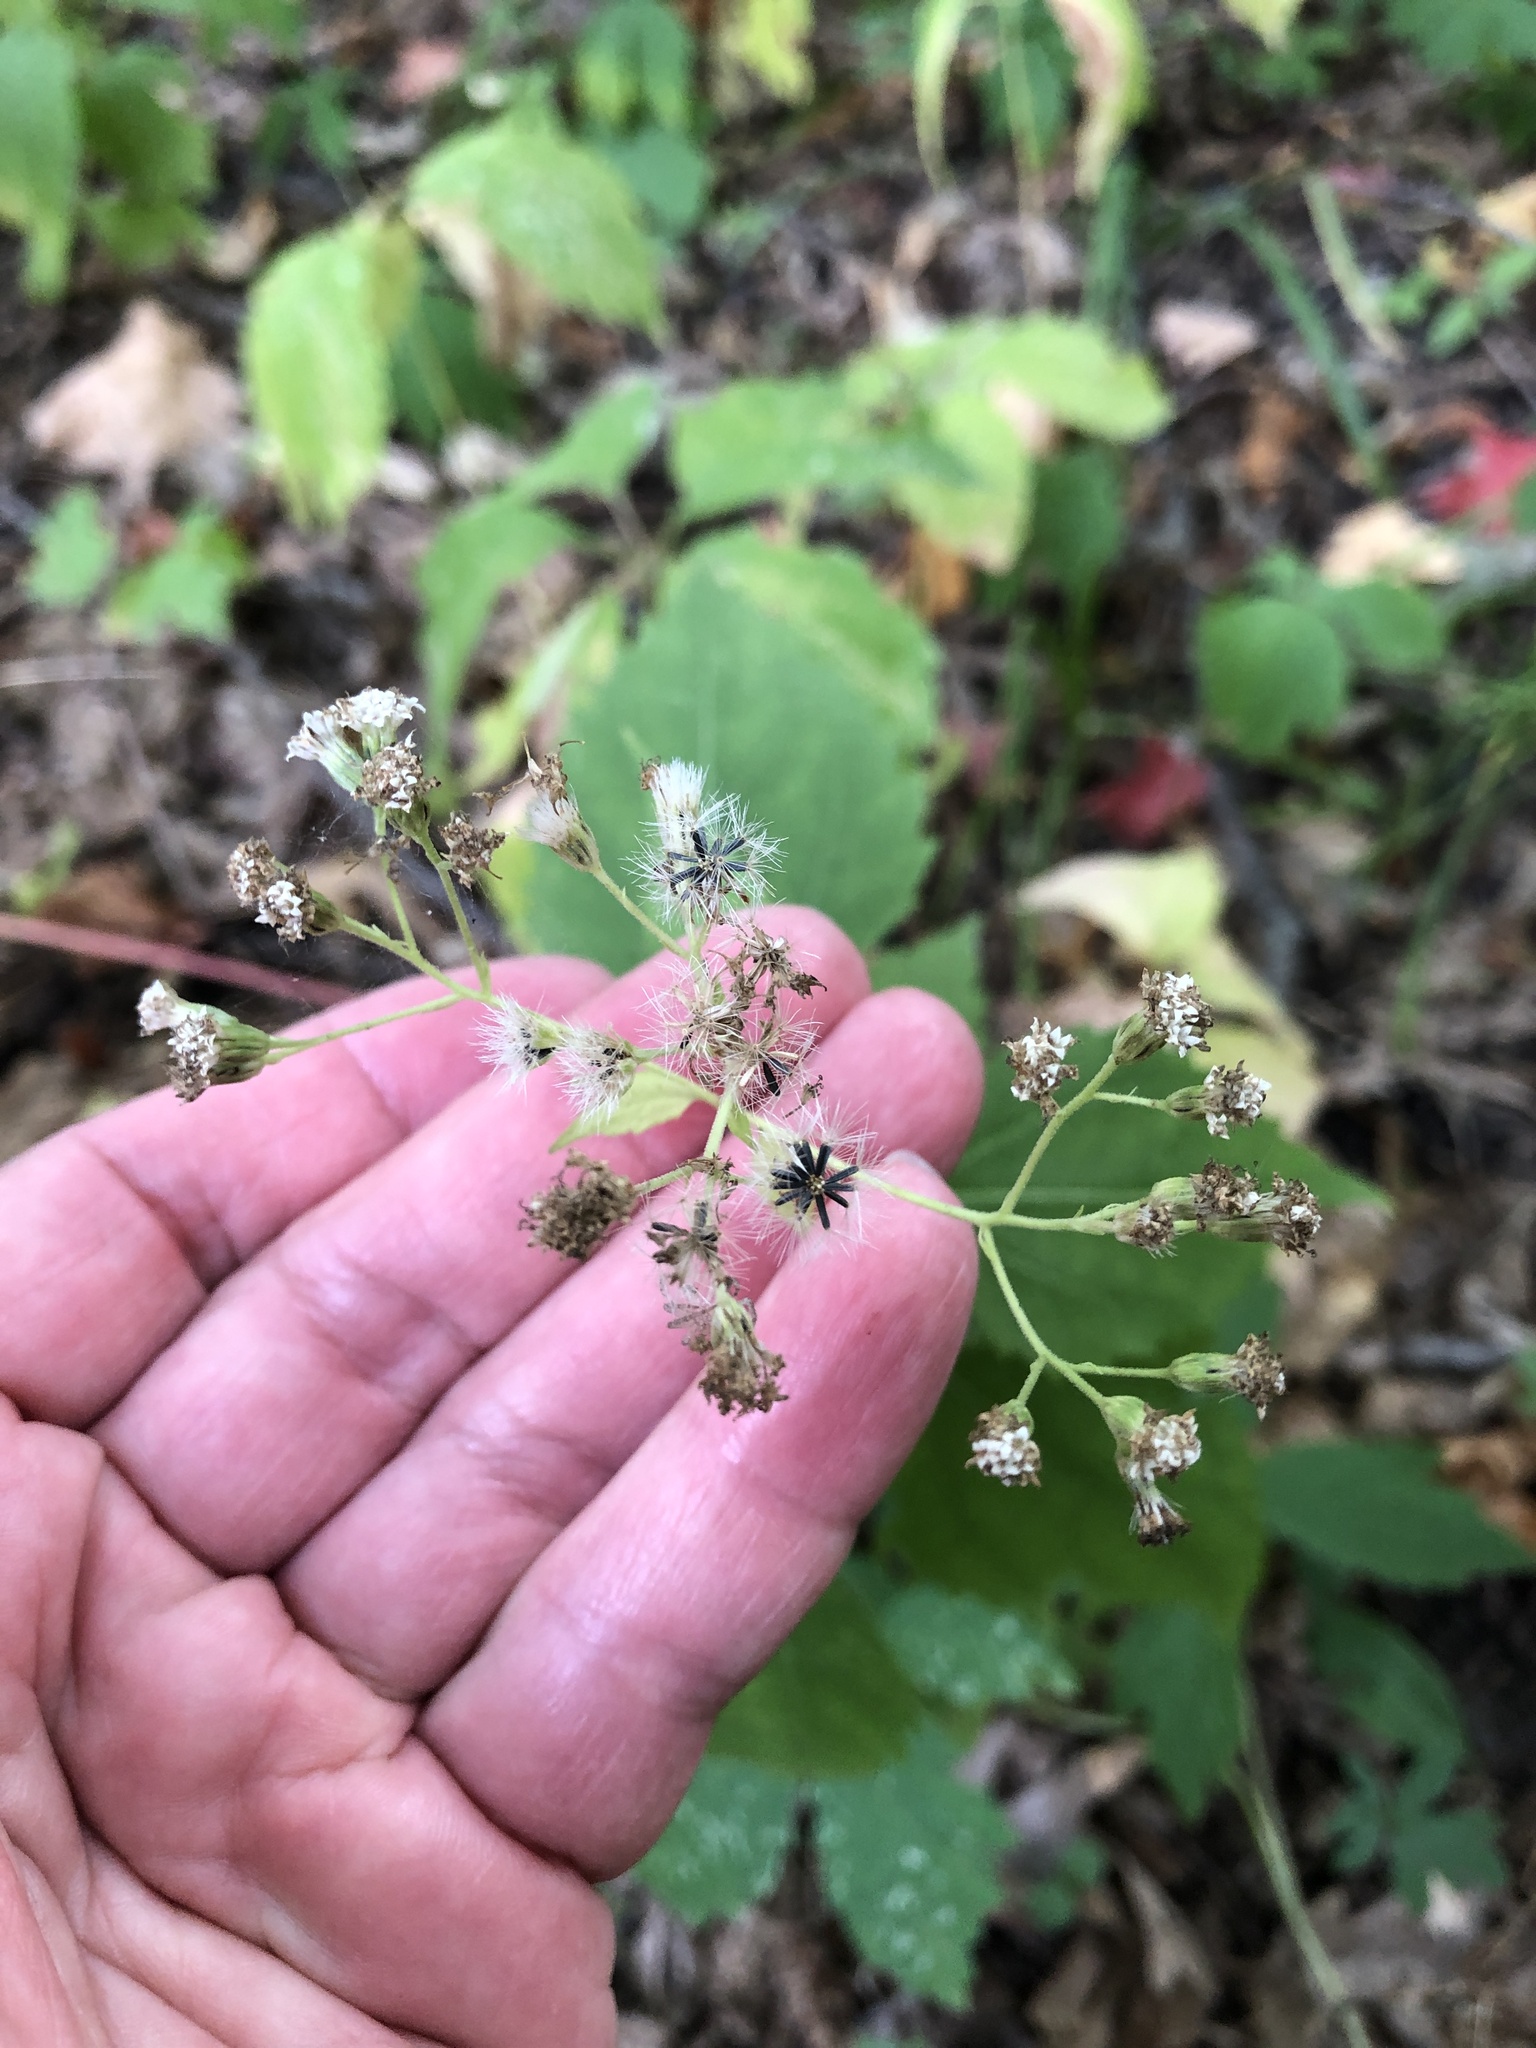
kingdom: Plantae
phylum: Tracheophyta
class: Magnoliopsida
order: Asterales
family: Asteraceae
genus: Ageratina
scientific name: Ageratina altissima
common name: White snakeroot
